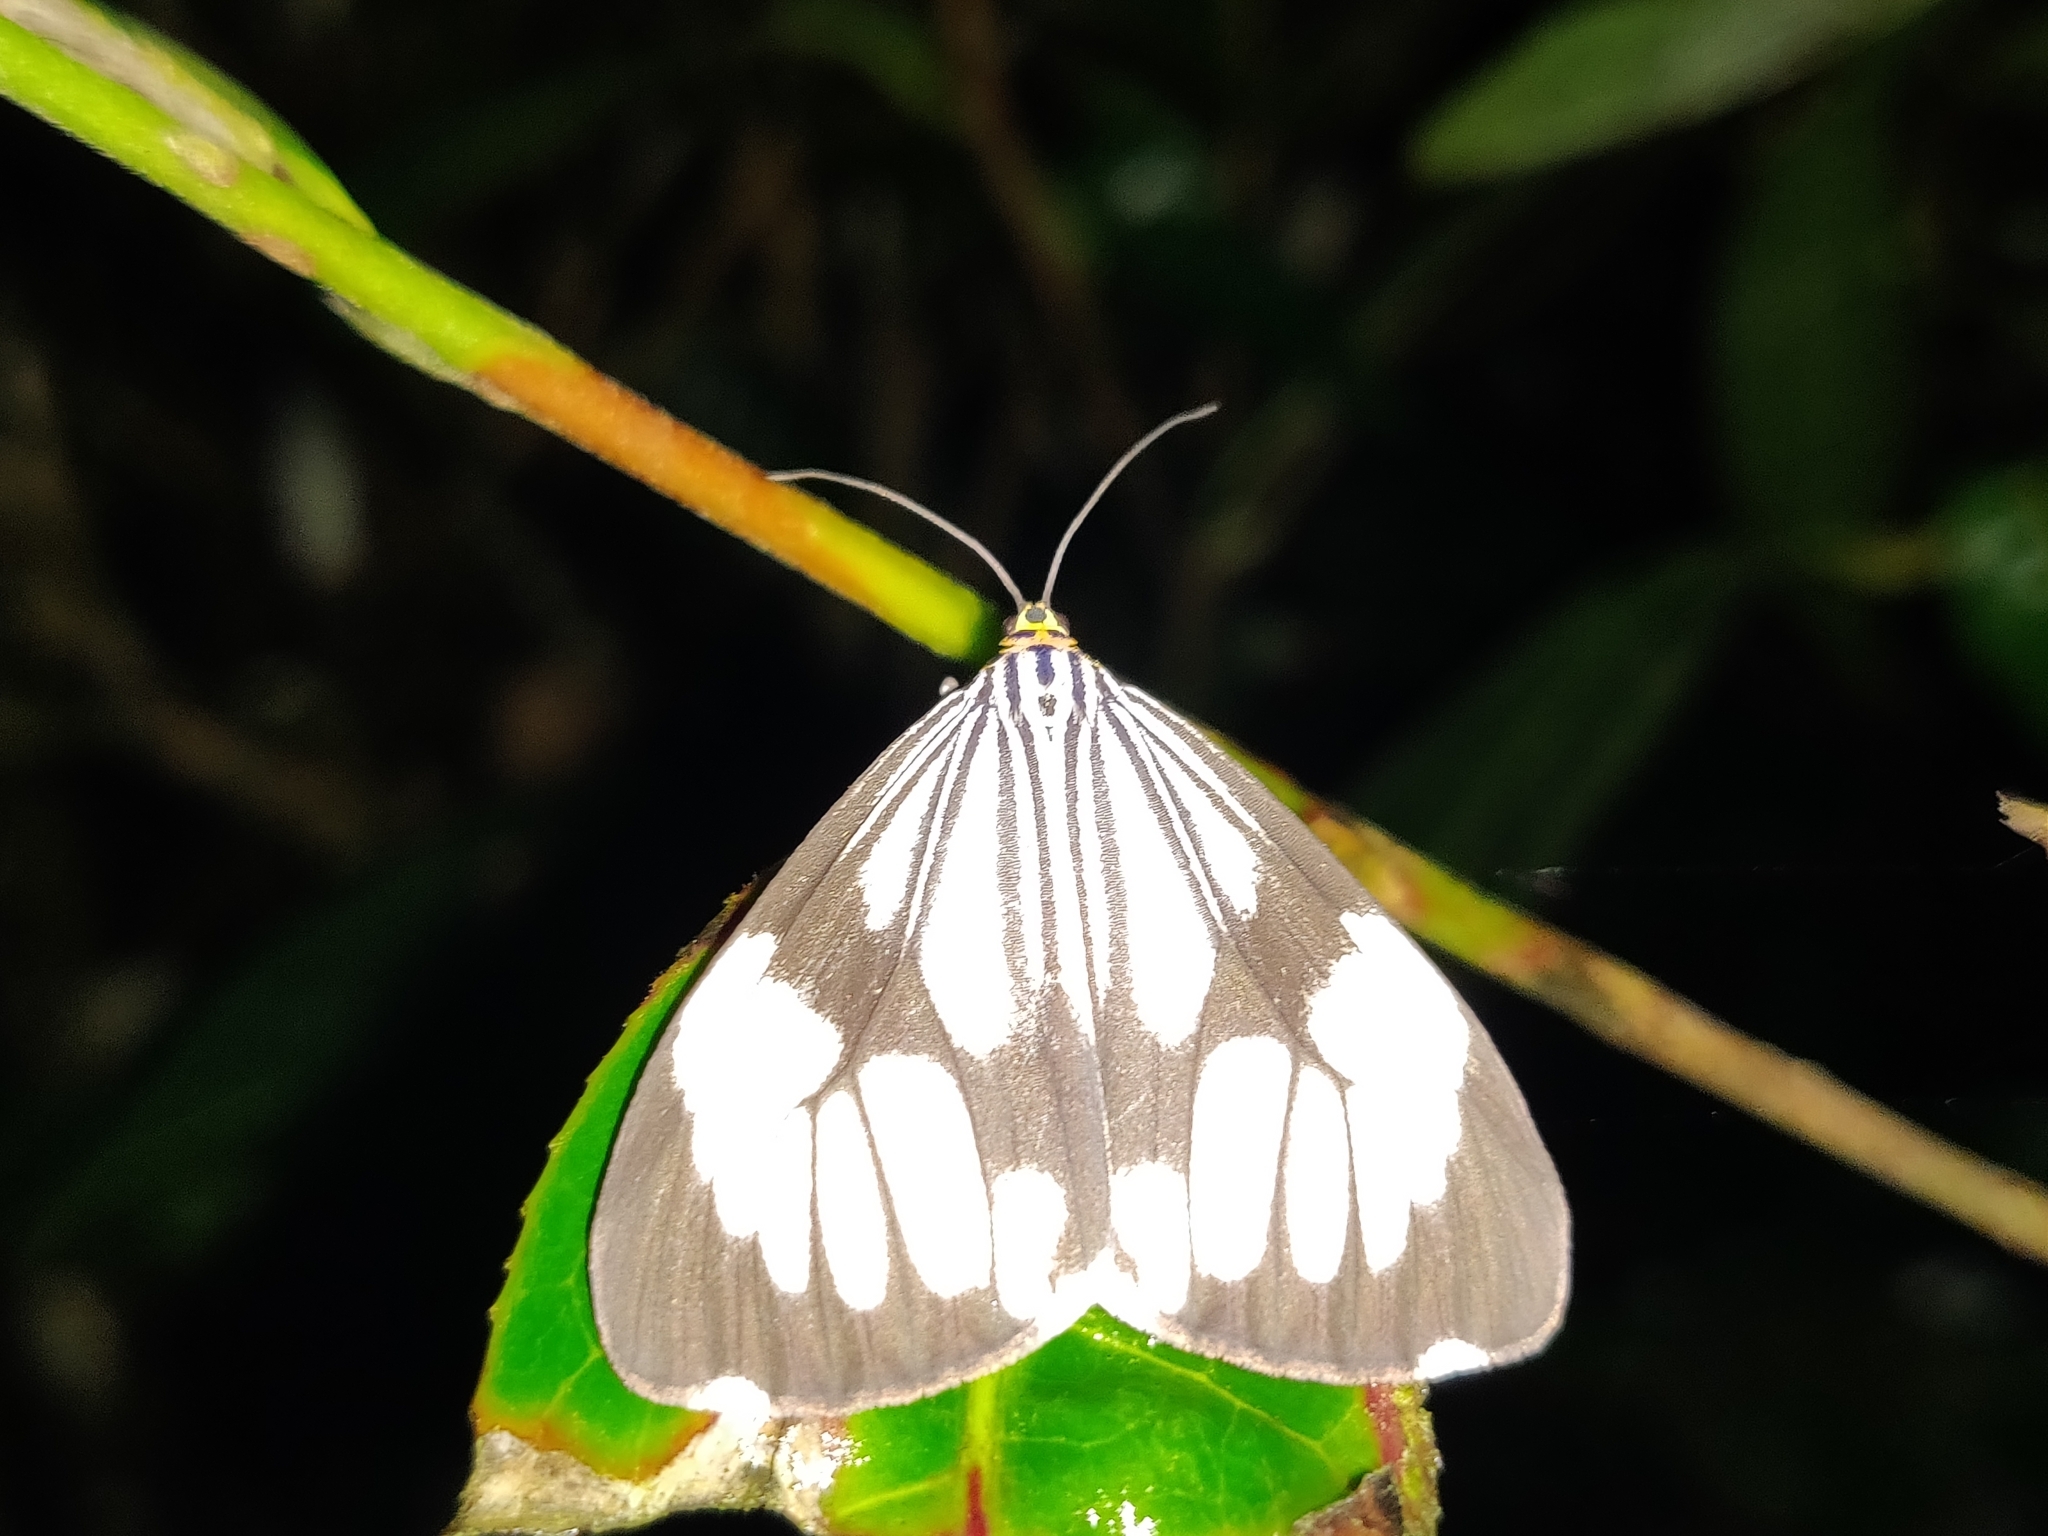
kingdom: Animalia
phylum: Arthropoda
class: Insecta
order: Lepidoptera
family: Erebidae
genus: Nyctemera
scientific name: Nyctemera coleta
